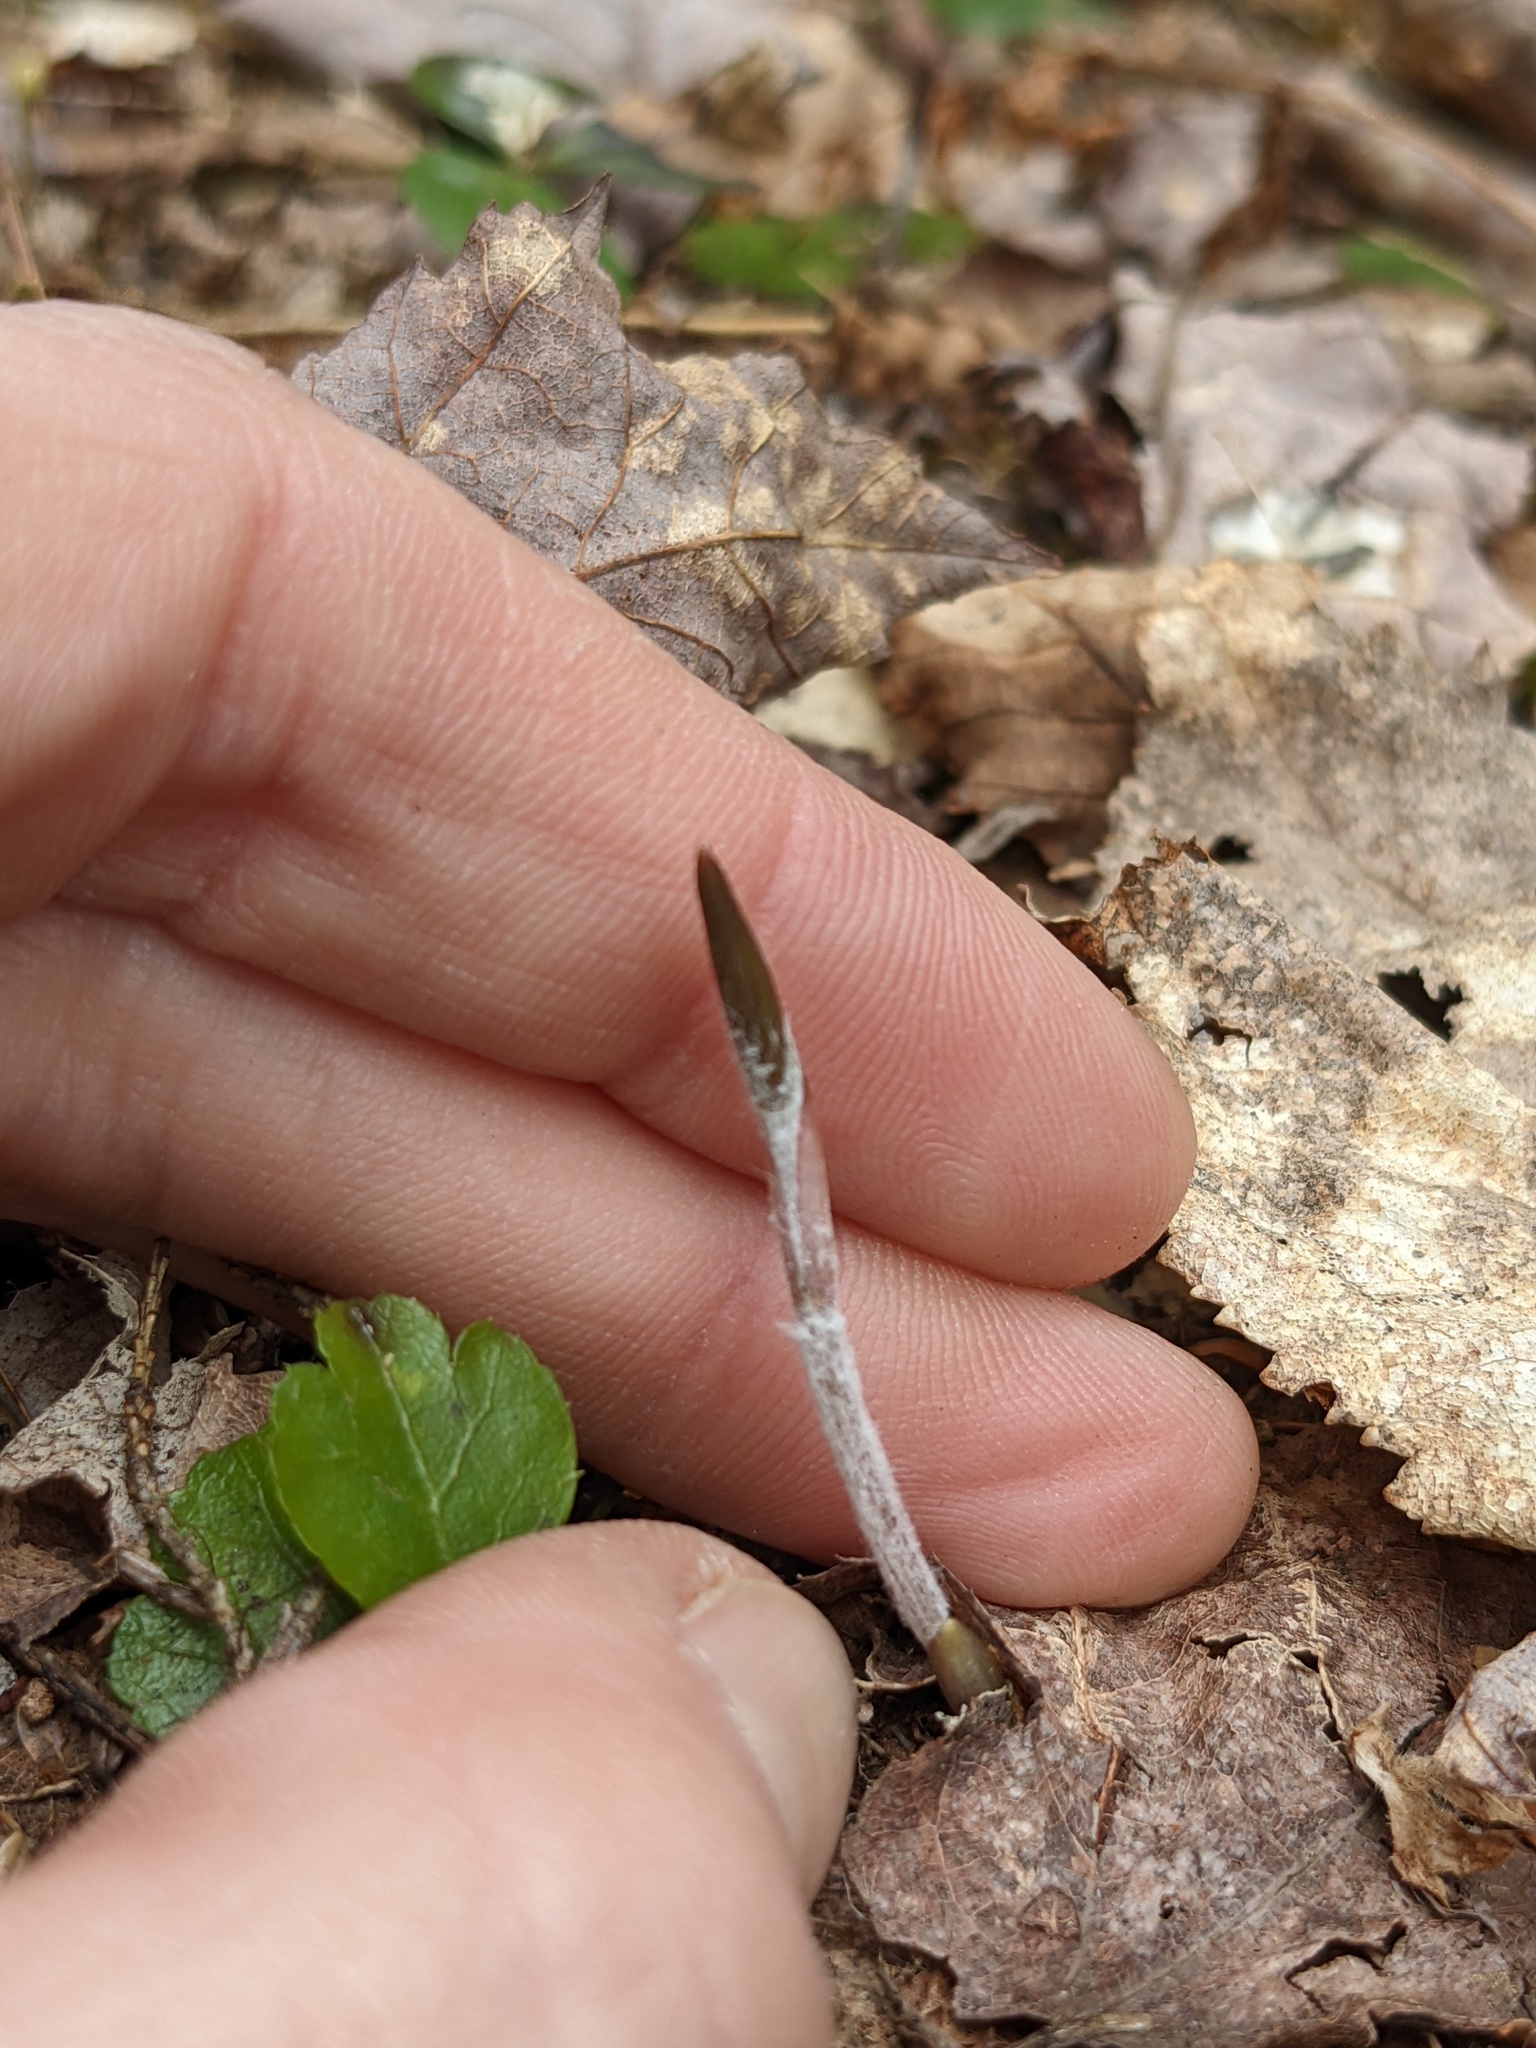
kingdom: Plantae
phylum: Tracheophyta
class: Liliopsida
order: Liliales
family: Liliaceae
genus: Medeola
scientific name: Medeola virginiana
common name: Indian cucumber-root
